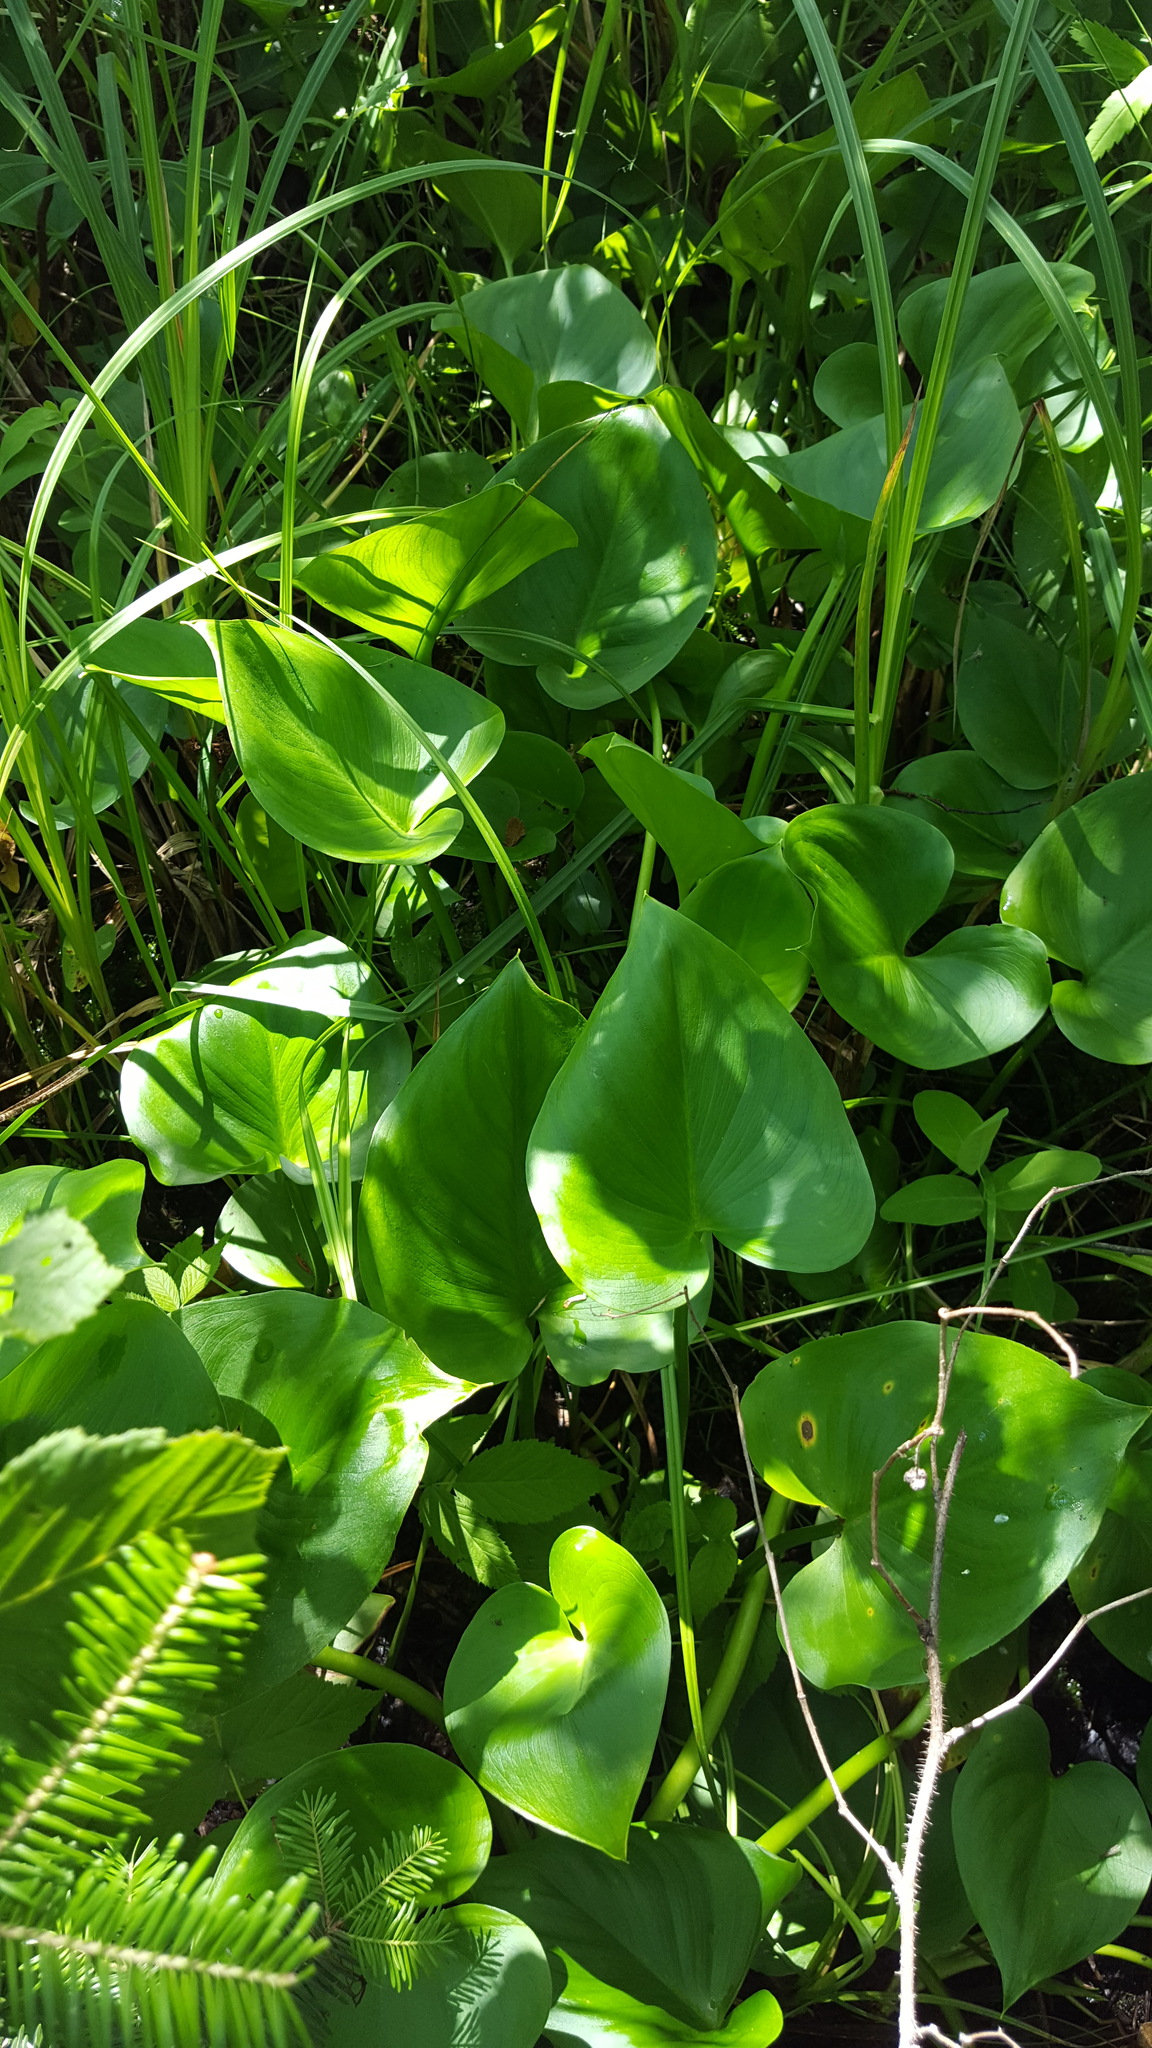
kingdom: Plantae
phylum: Tracheophyta
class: Liliopsida
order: Alismatales
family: Araceae
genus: Calla
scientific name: Calla palustris
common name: Bog arum
